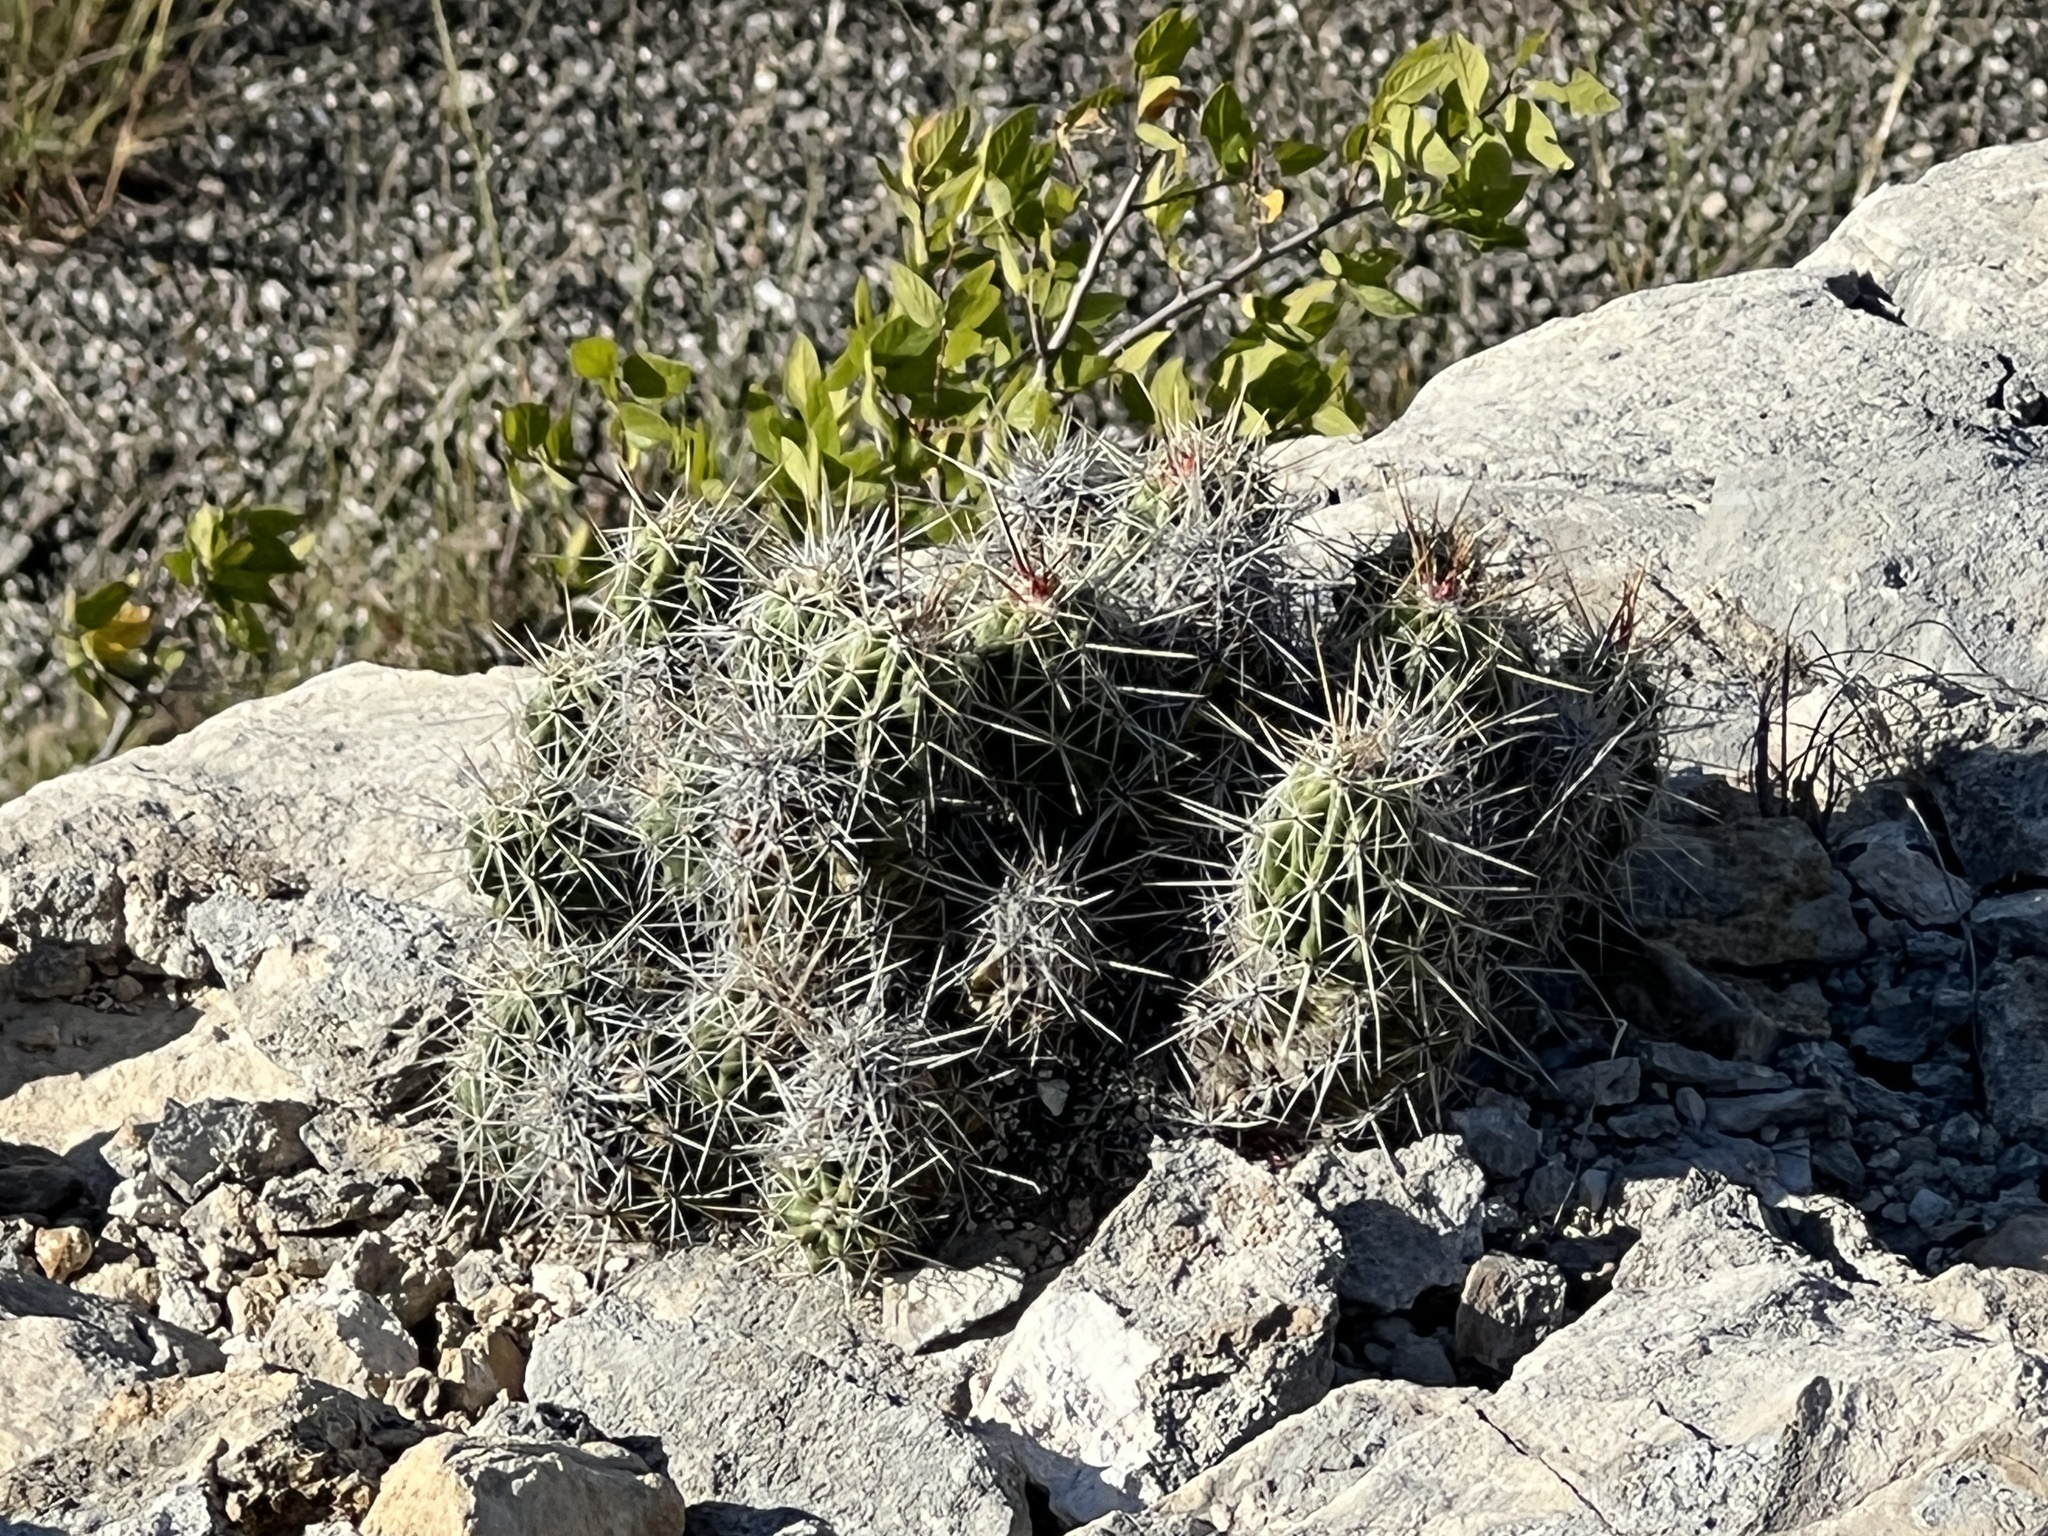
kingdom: Plantae
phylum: Tracheophyta
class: Magnoliopsida
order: Caryophyllales
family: Cactaceae
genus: Echinocereus
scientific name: Echinocereus enneacanthus
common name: Pitaya
